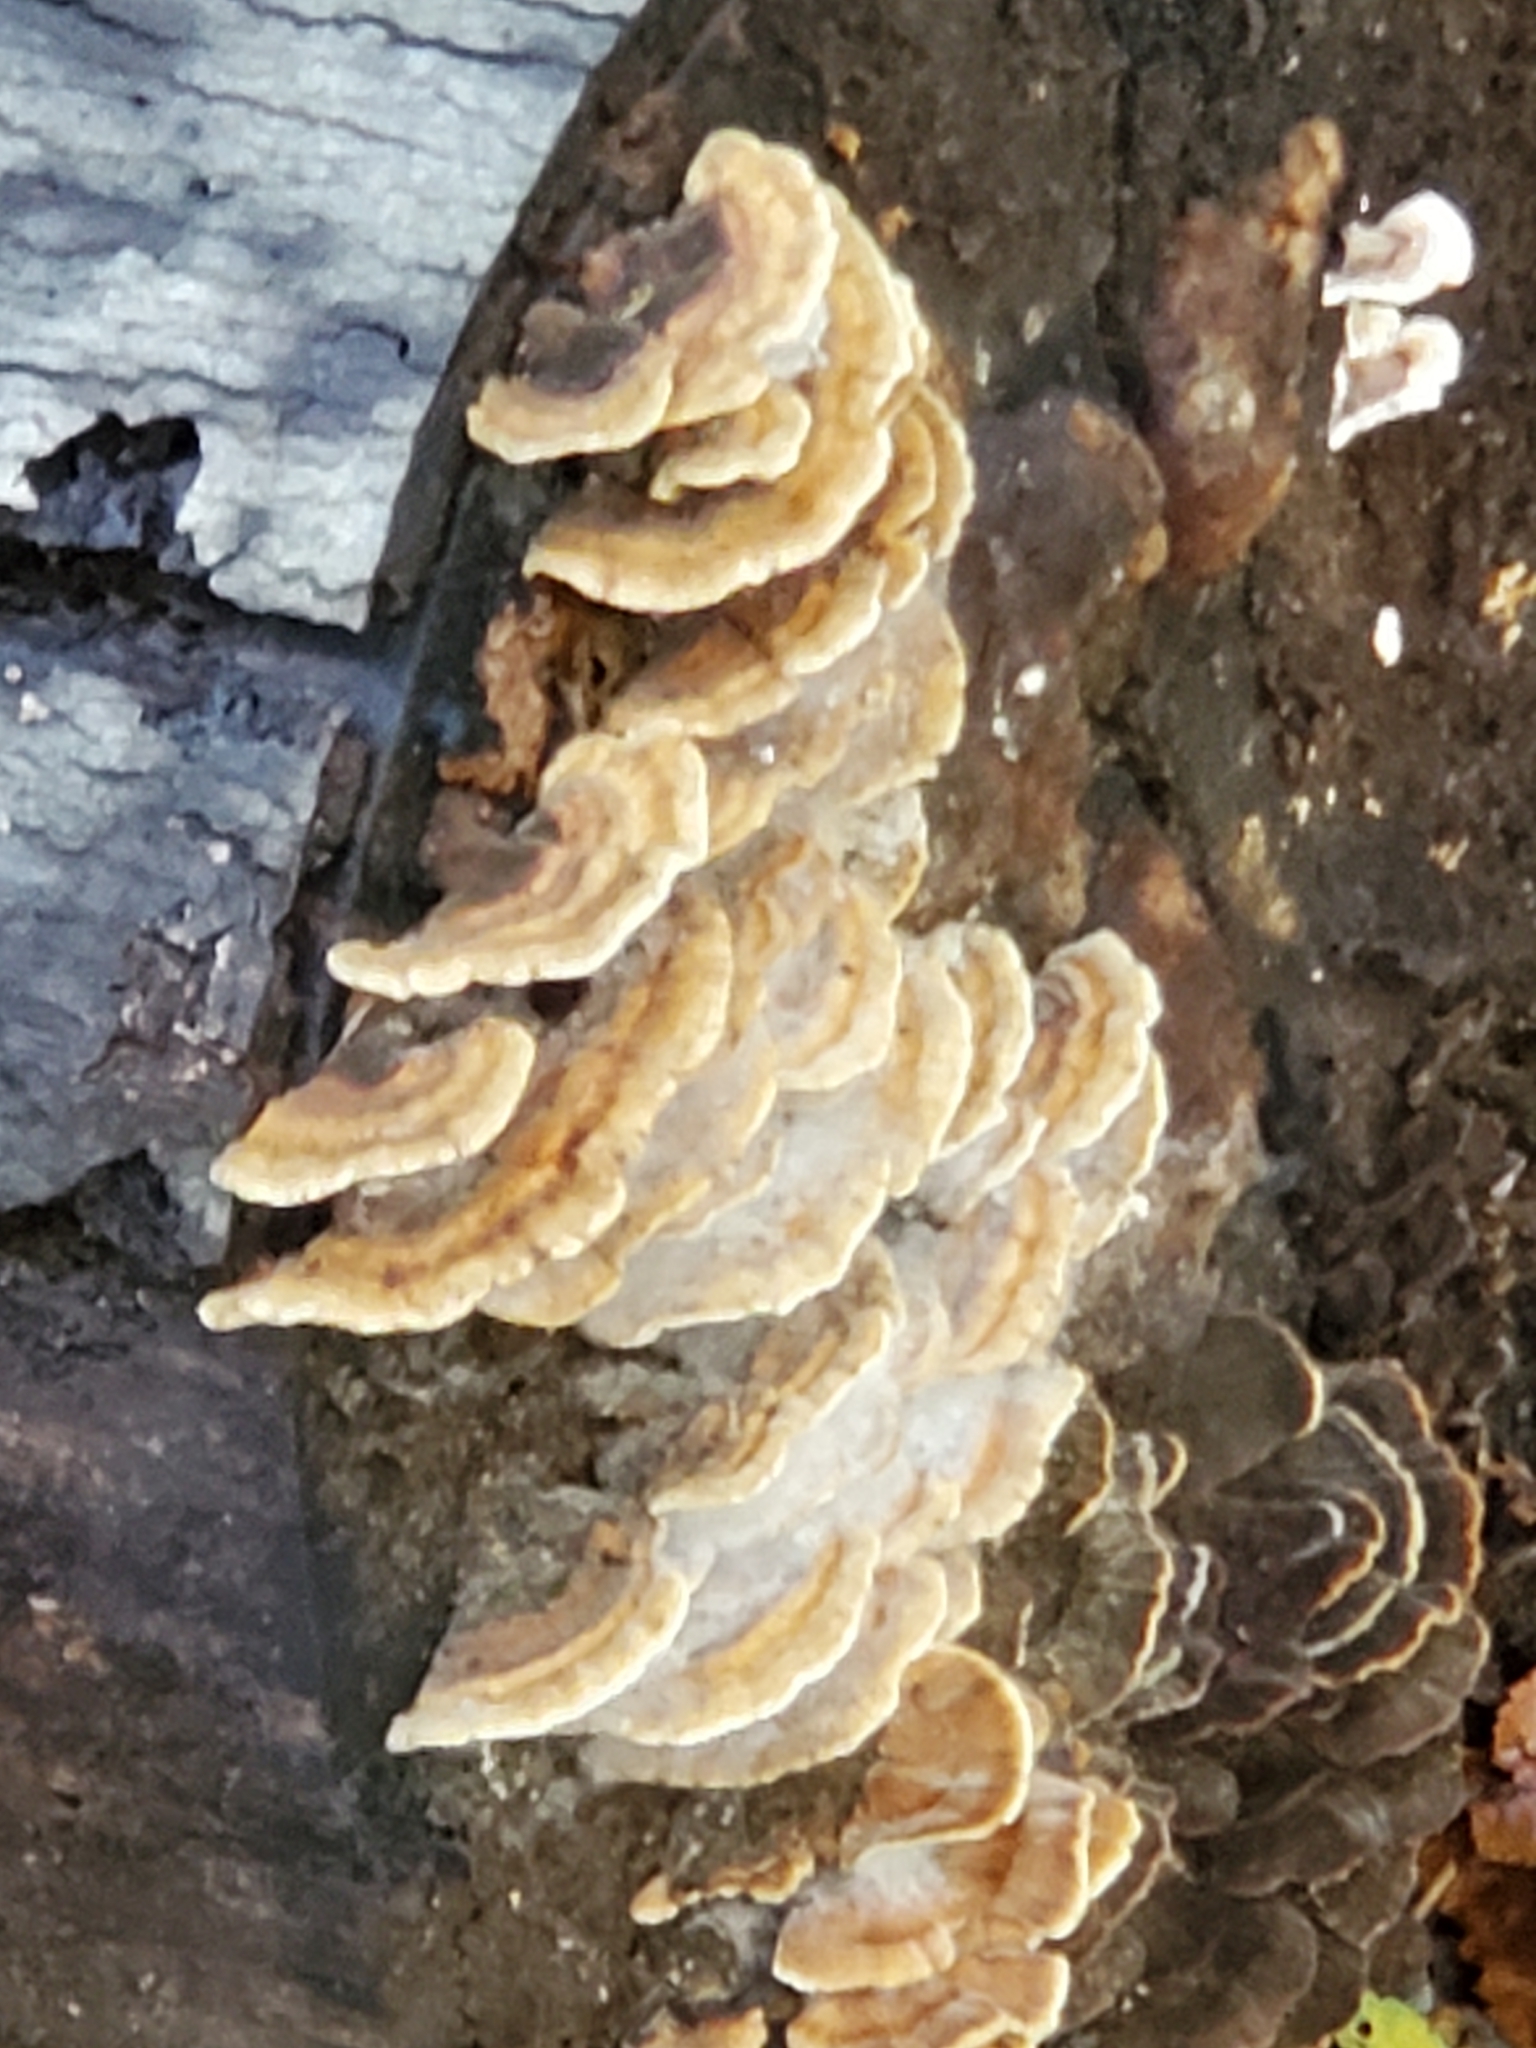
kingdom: Fungi
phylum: Basidiomycota
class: Agaricomycetes
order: Polyporales
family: Polyporaceae
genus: Trametes
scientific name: Trametes ochracea
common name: Ochre bracket
